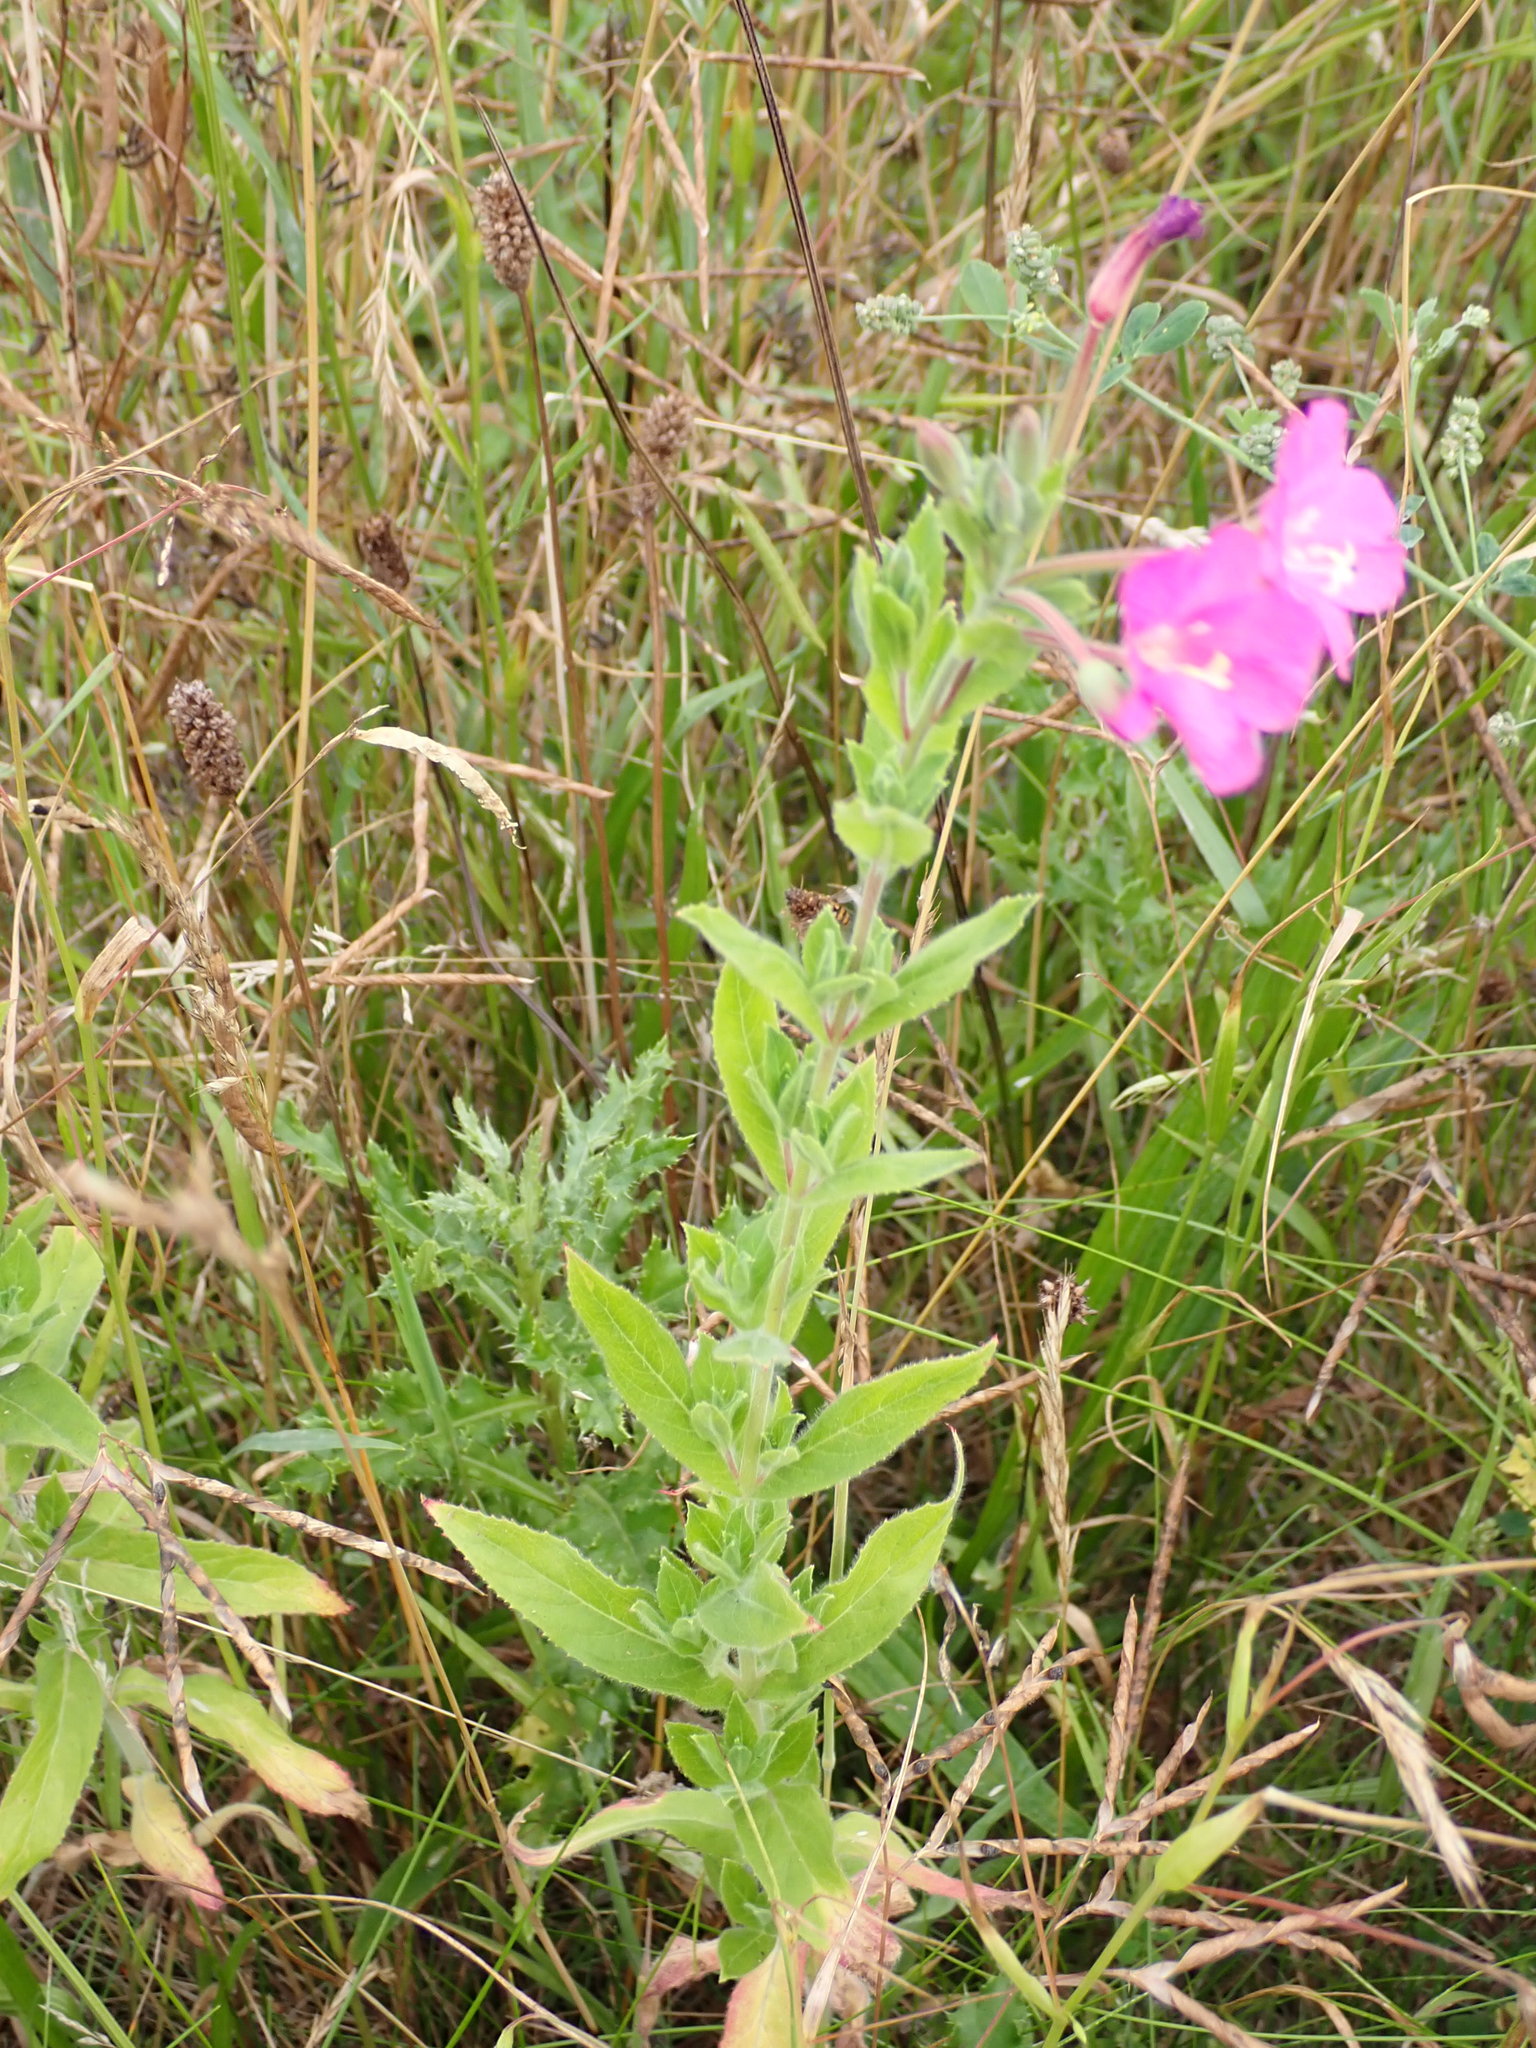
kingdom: Plantae
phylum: Tracheophyta
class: Magnoliopsida
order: Myrtales
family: Onagraceae
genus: Epilobium
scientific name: Epilobium hirsutum
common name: Great willowherb
